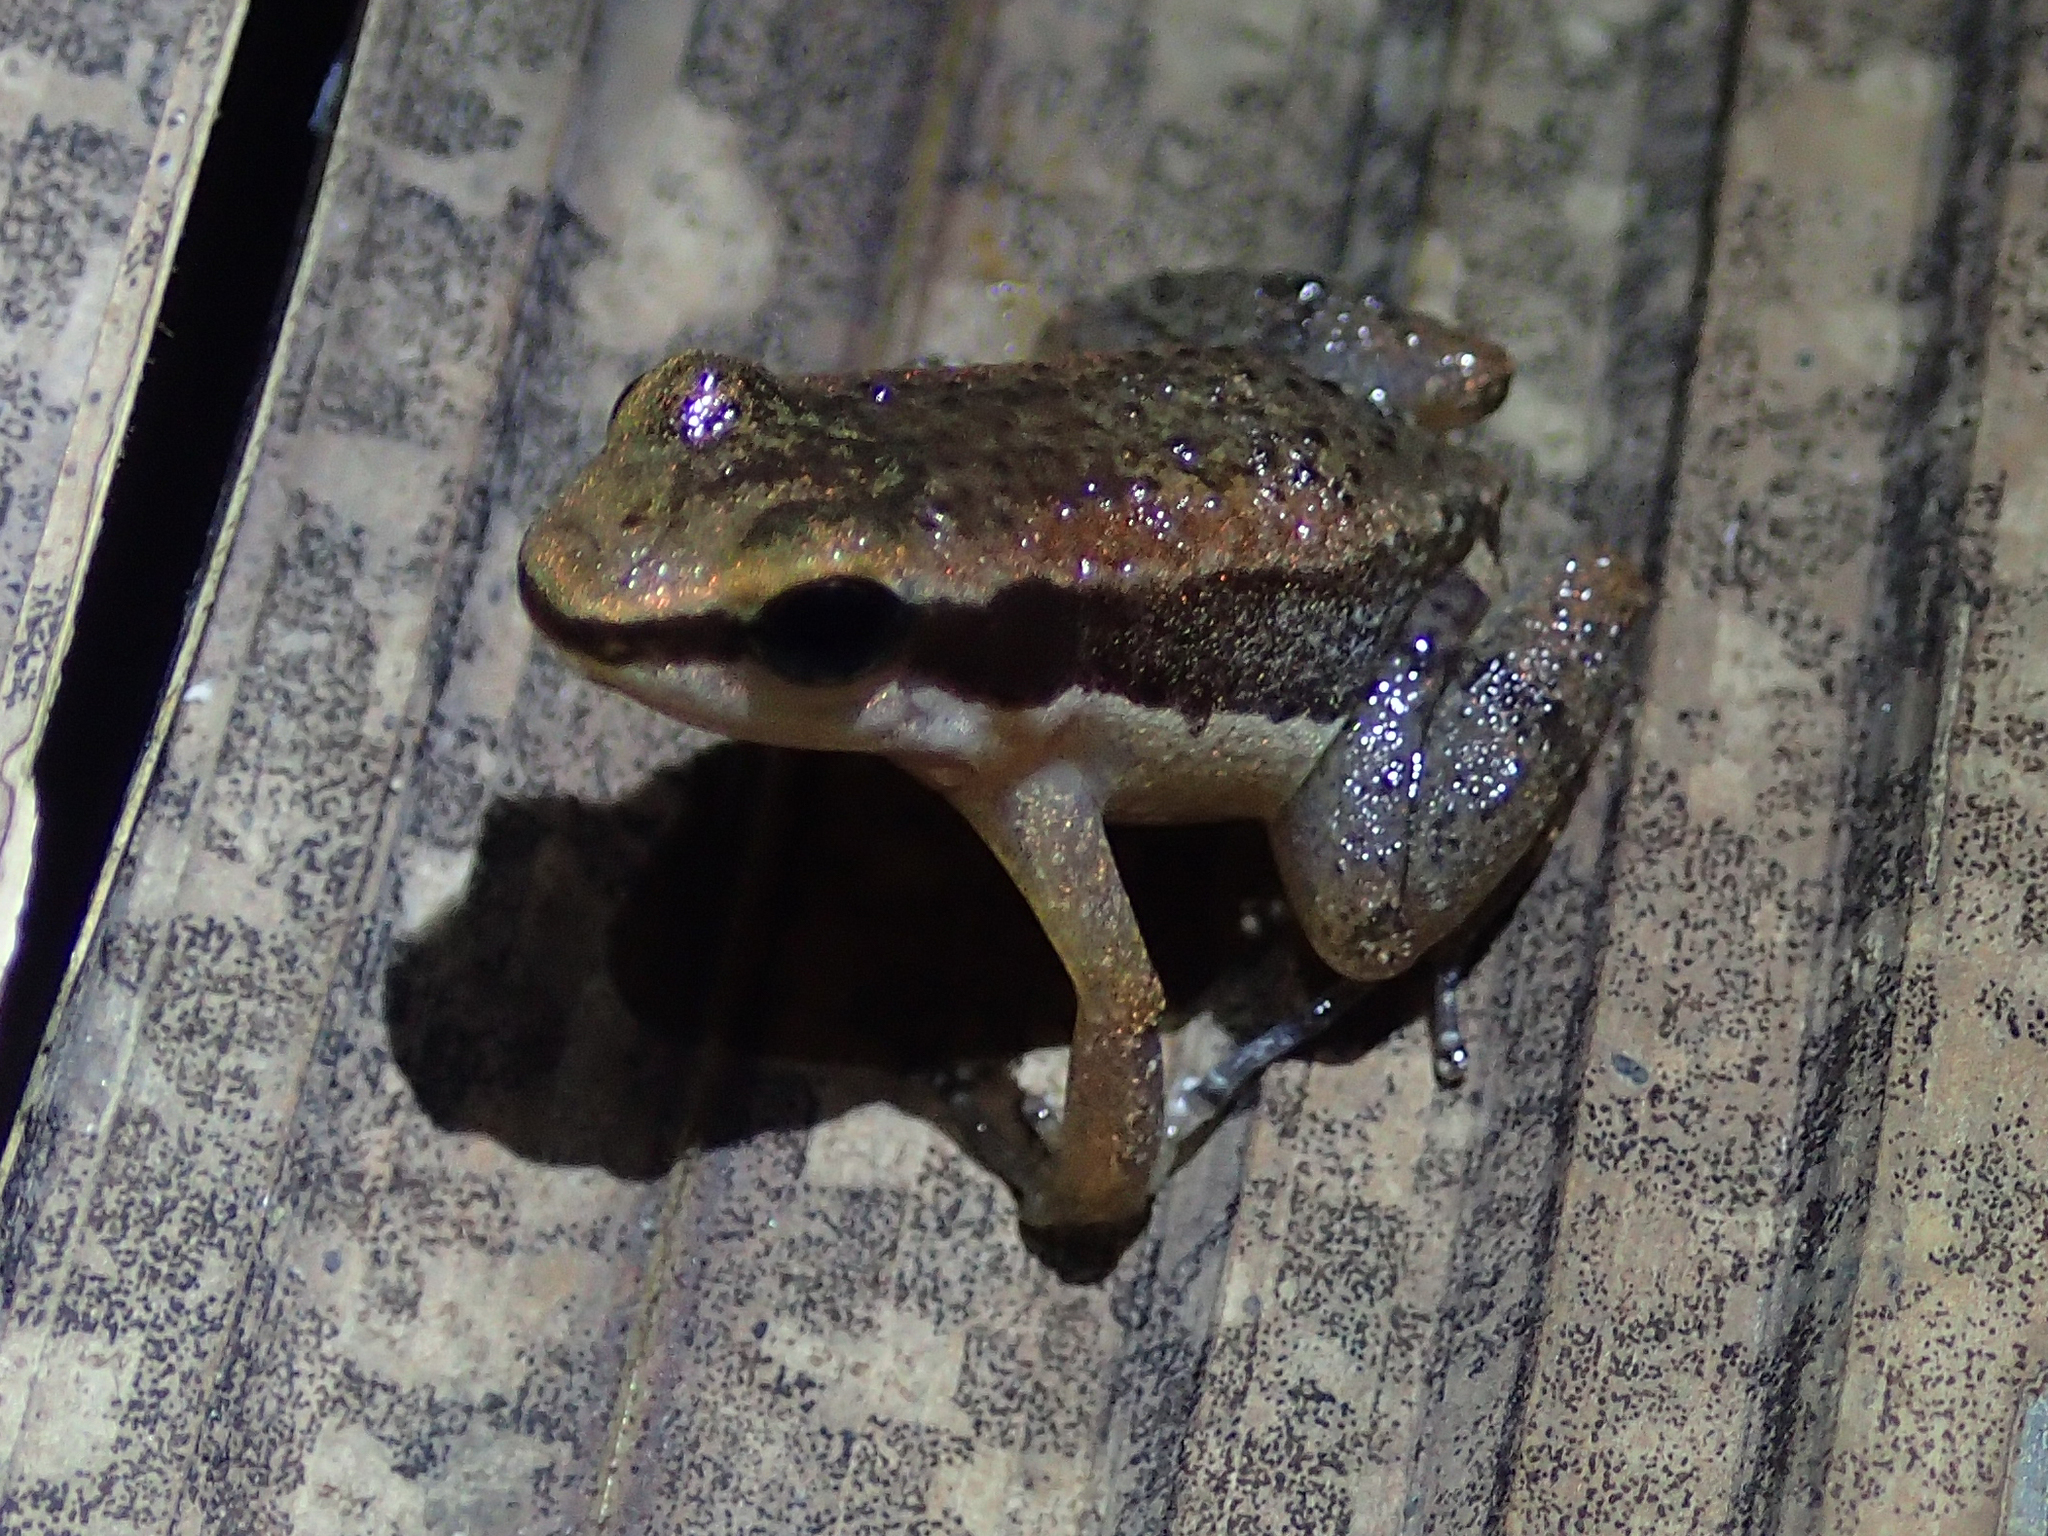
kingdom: Animalia
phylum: Chordata
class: Amphibia
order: Anura
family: Aromobatidae
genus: Allobates
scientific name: Allobates insperatus
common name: Santa cecilia rocket frog
